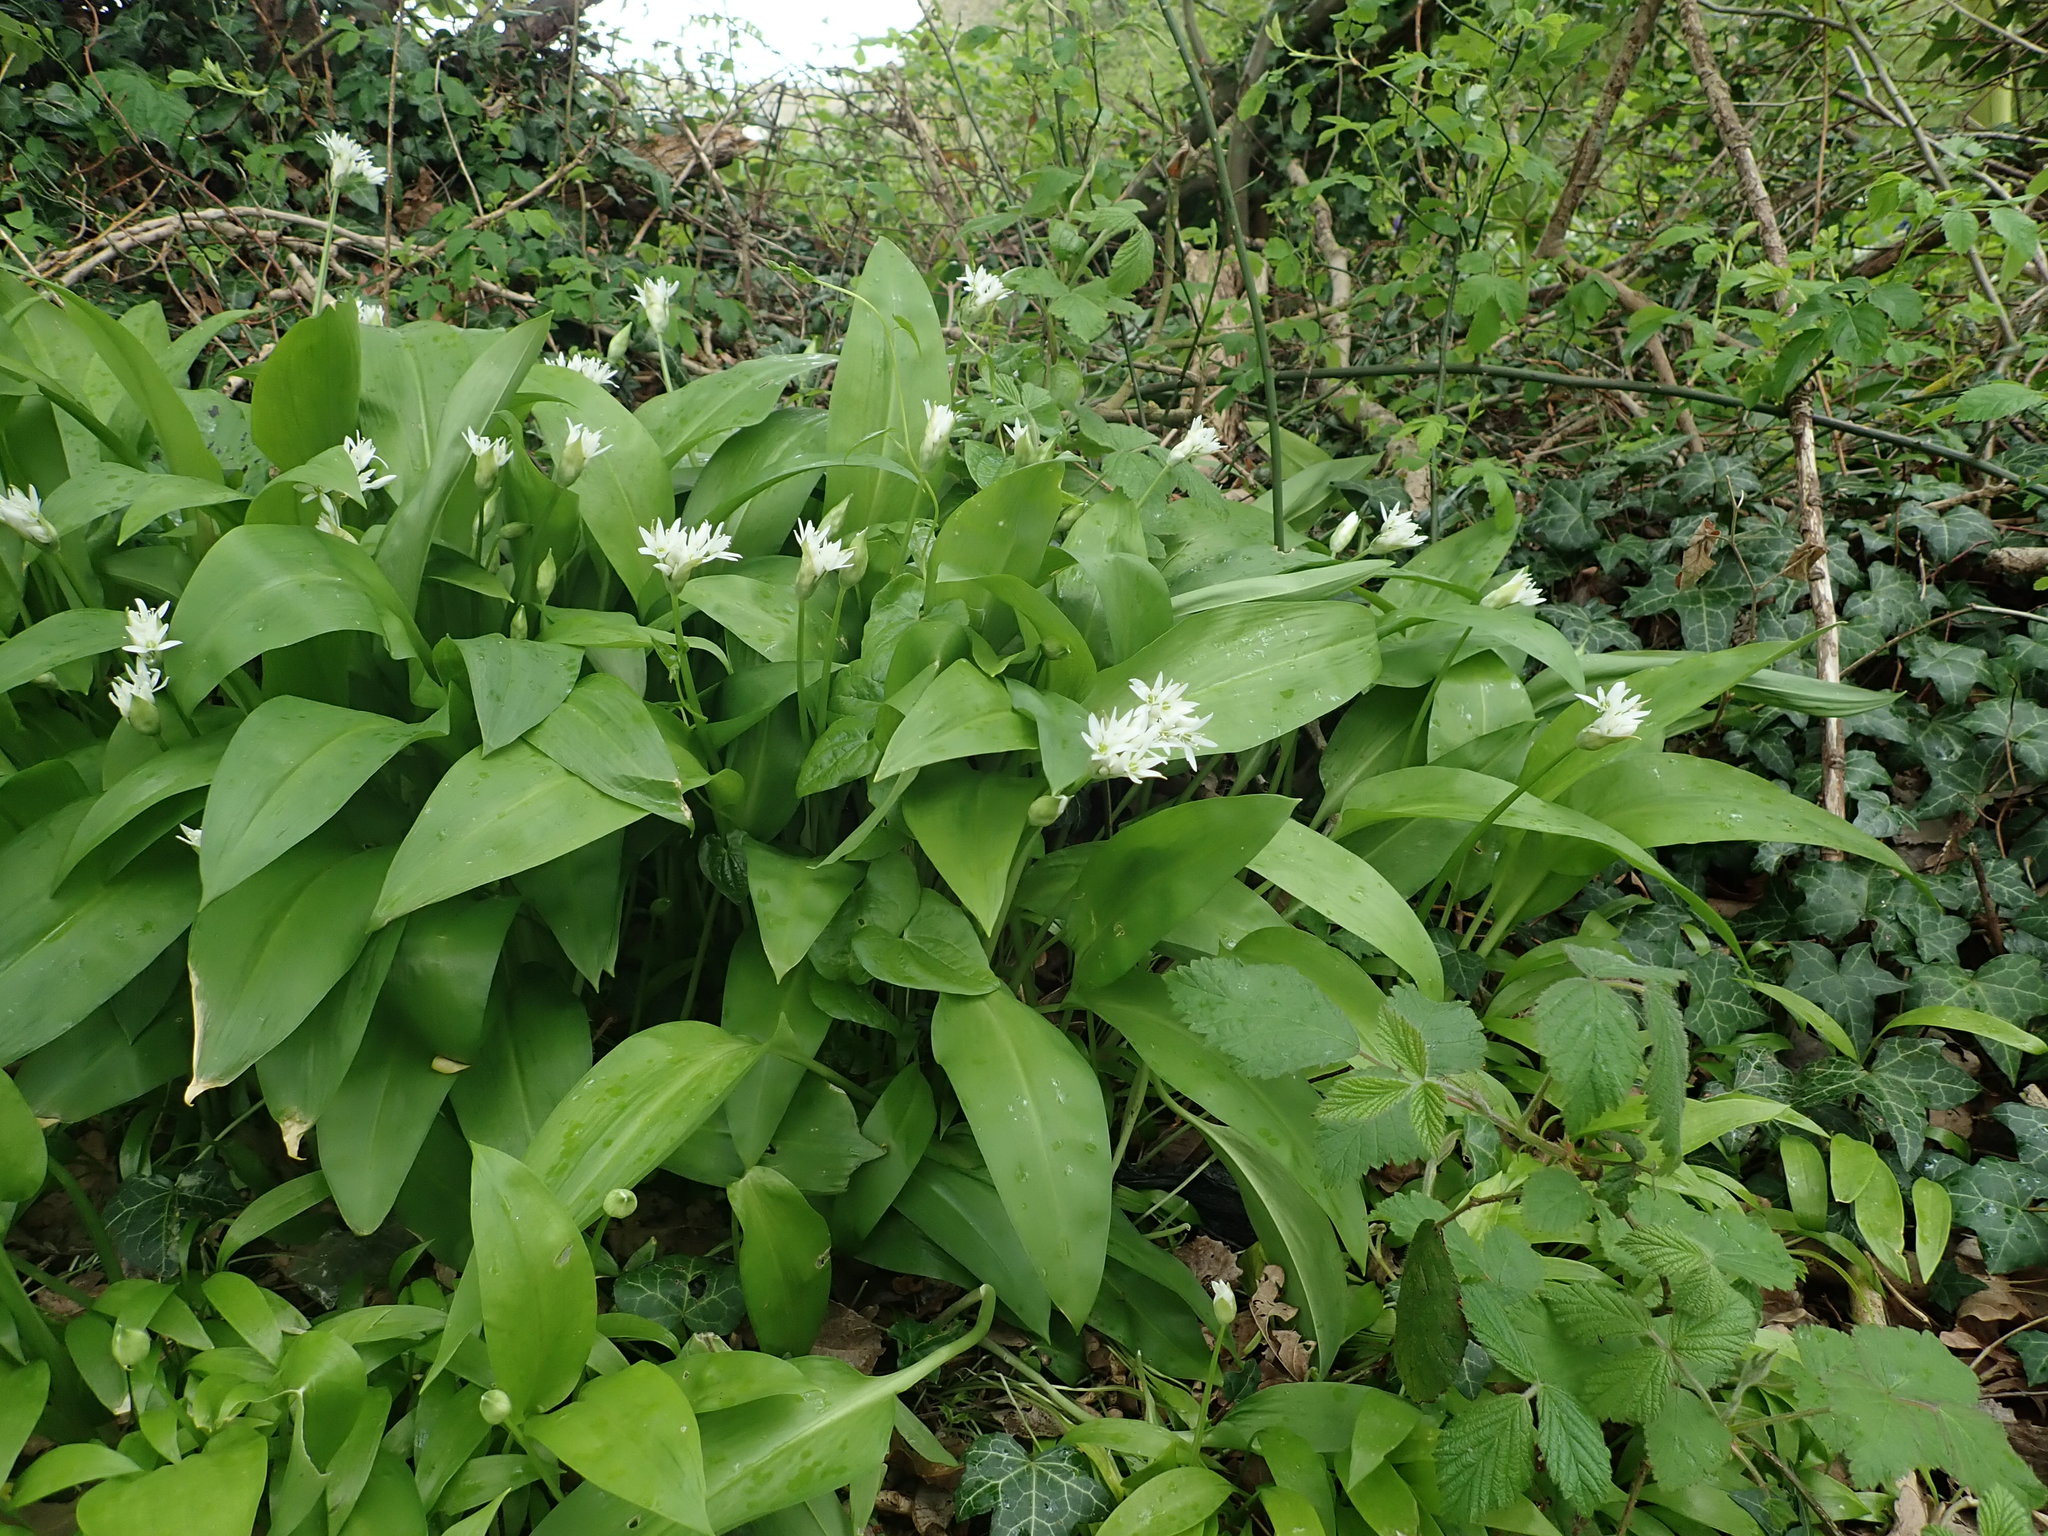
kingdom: Plantae
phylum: Tracheophyta
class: Liliopsida
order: Asparagales
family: Amaryllidaceae
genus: Allium
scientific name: Allium ursinum
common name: Ramsons
